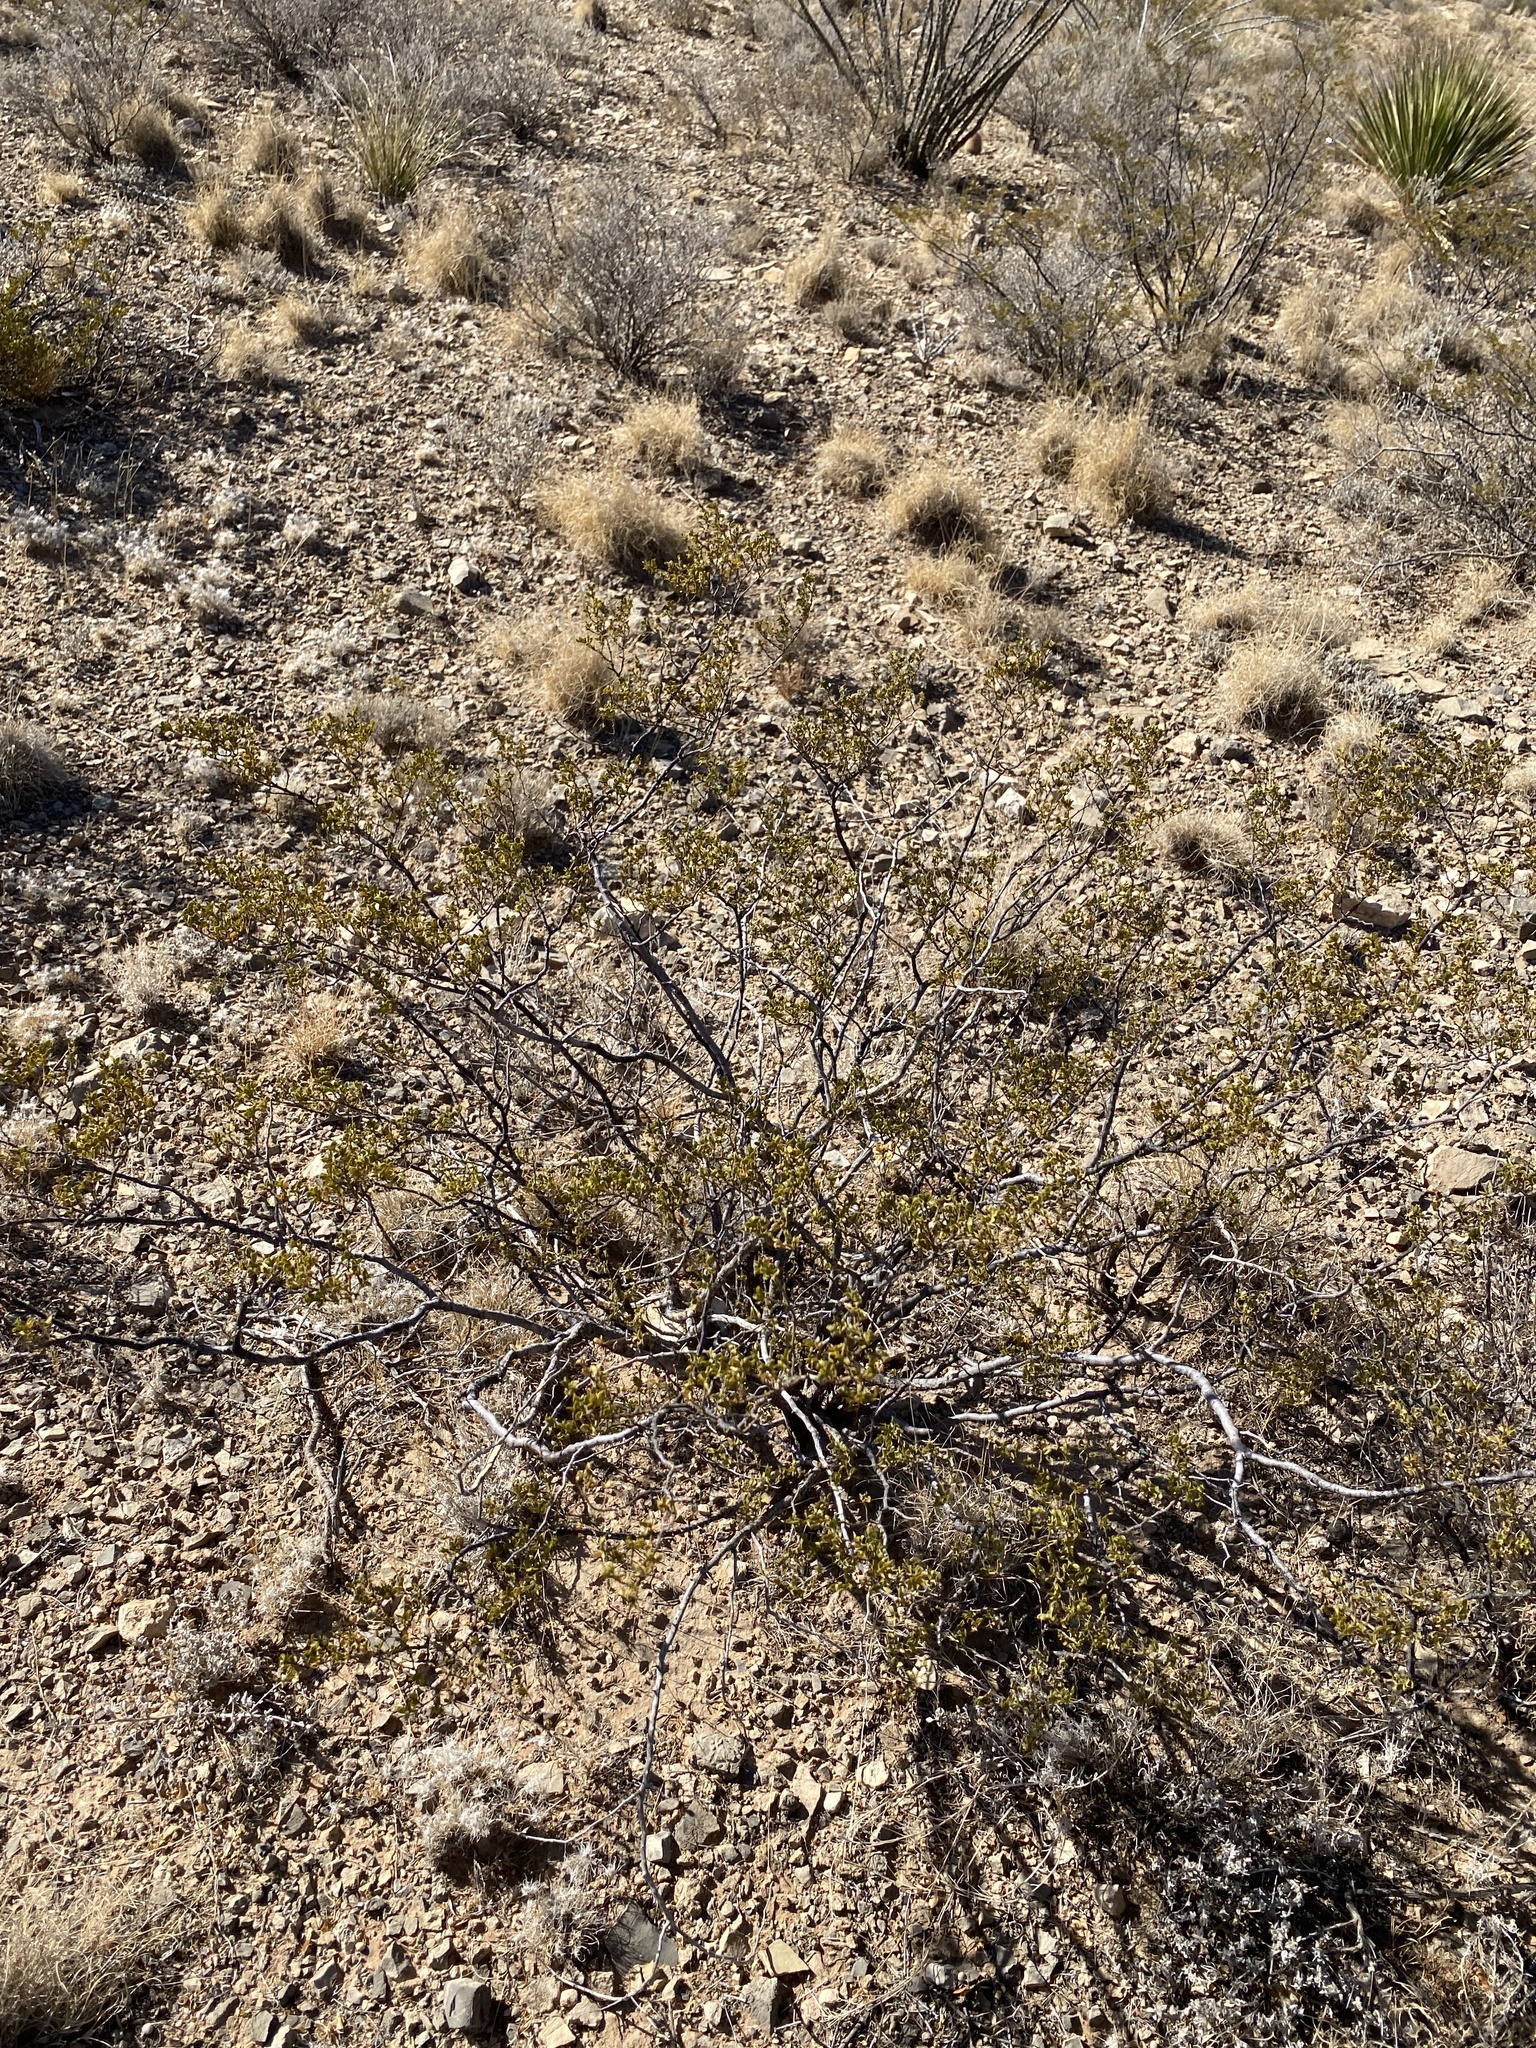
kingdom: Plantae
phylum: Tracheophyta
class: Magnoliopsida
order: Zygophyllales
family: Zygophyllaceae
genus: Larrea
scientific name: Larrea tridentata
